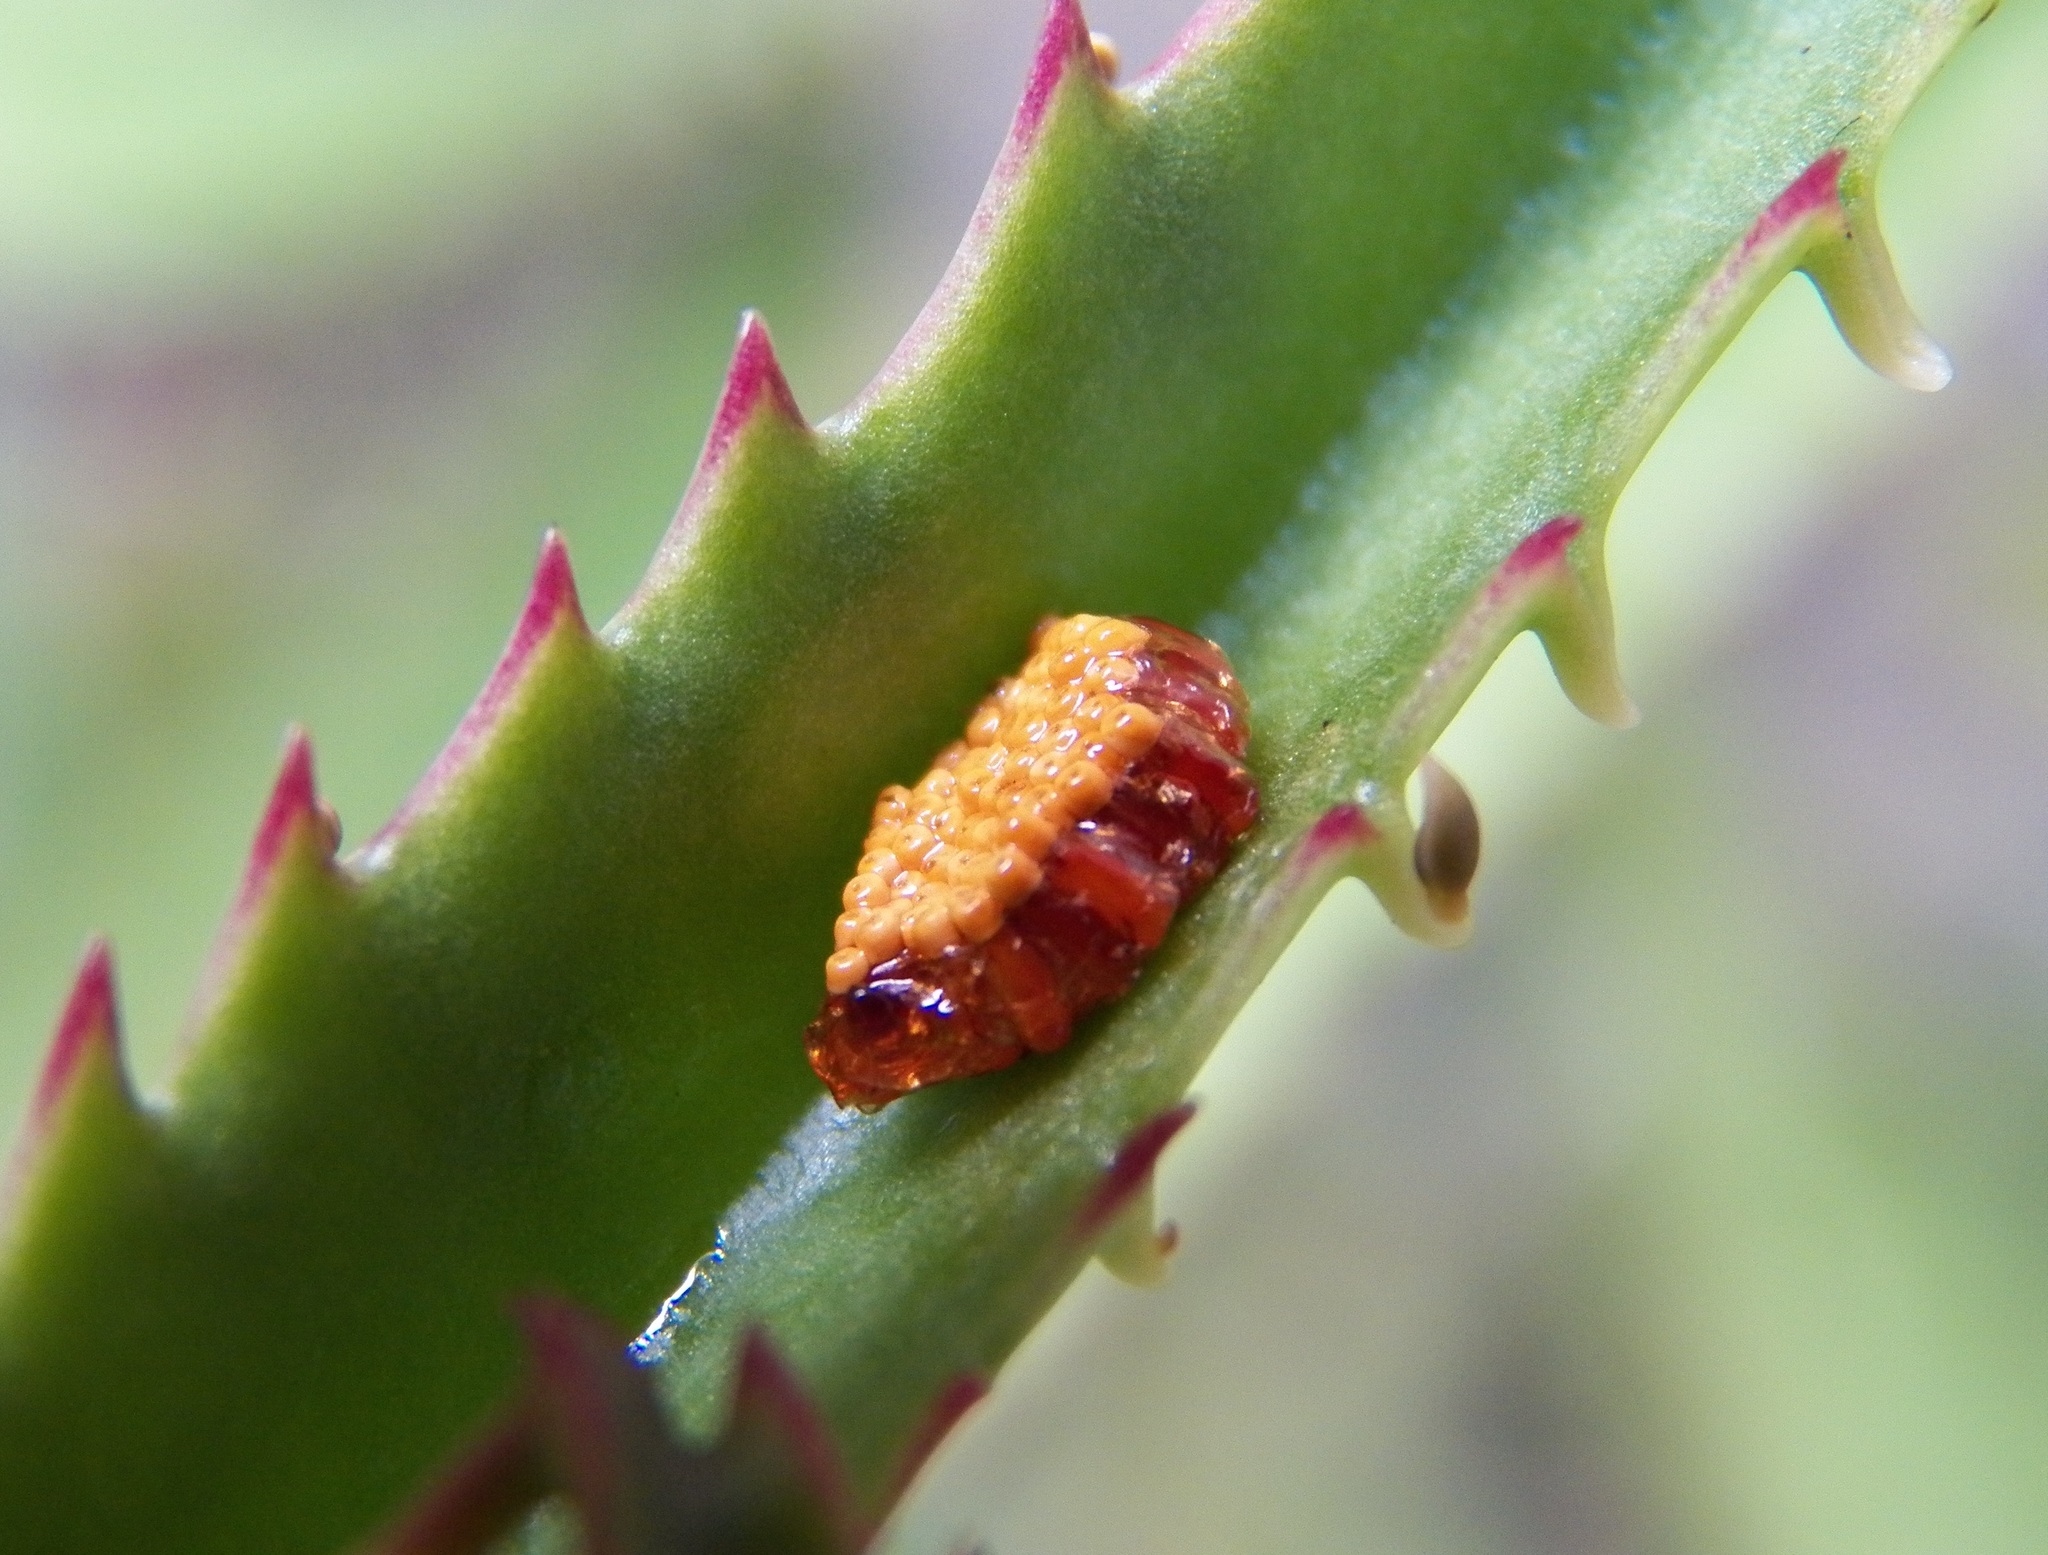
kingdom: Animalia
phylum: Arthropoda
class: Insecta
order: Hemiptera
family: Reduviidae
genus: Zelus
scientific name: Zelus longipes
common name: Milkweed assassin bug
